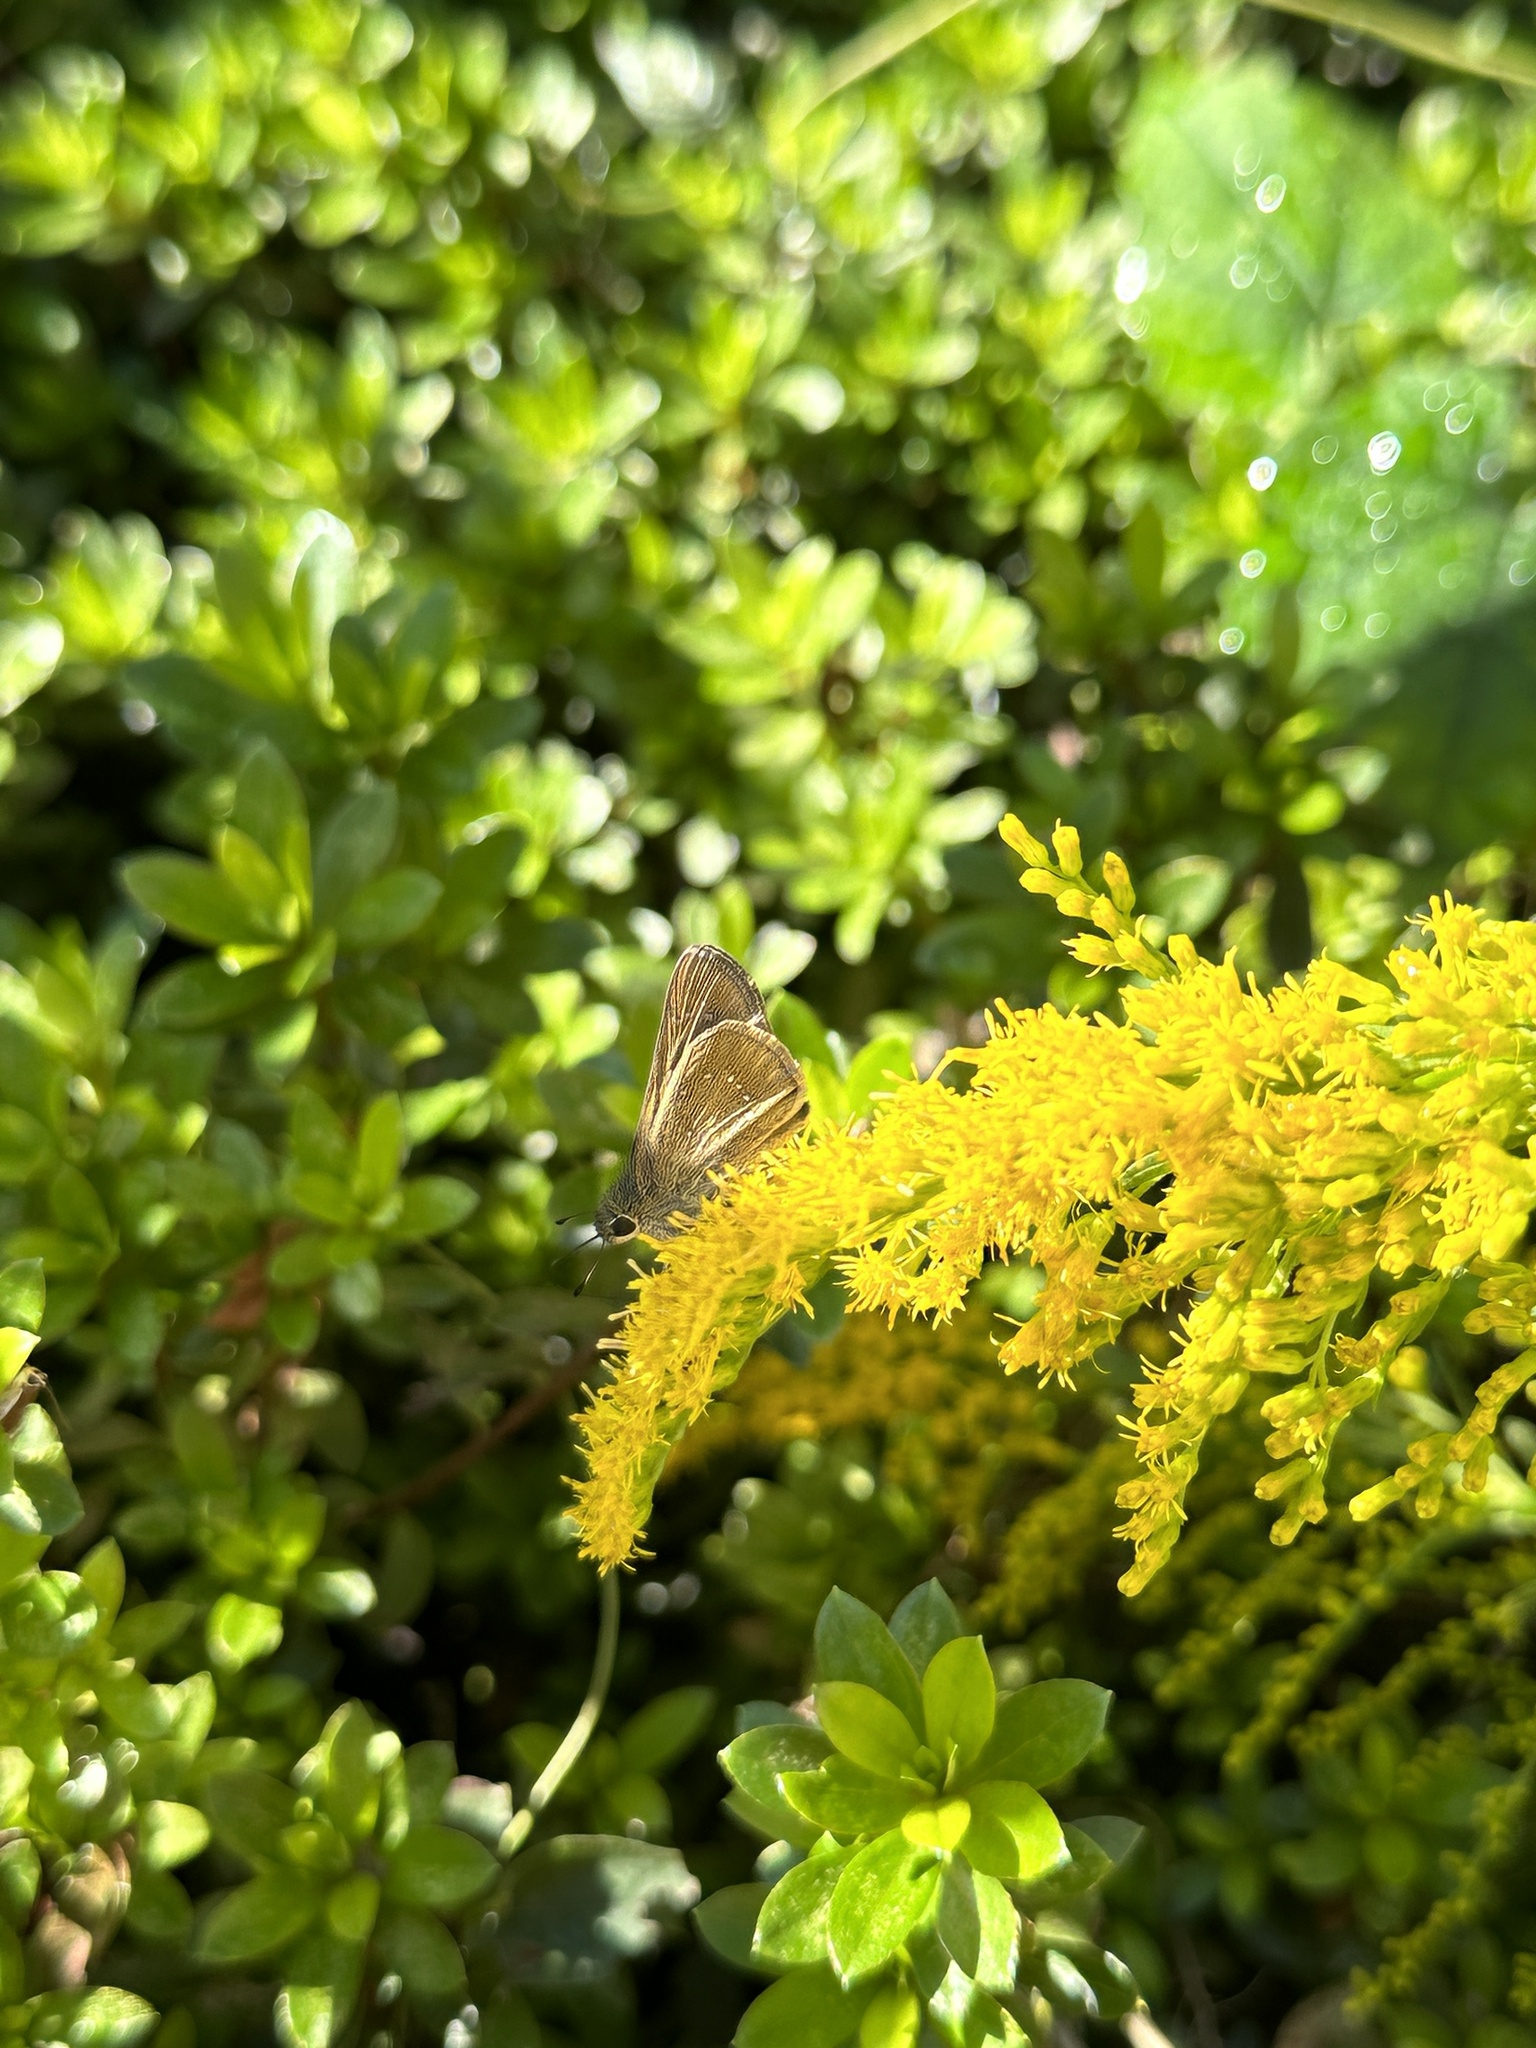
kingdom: Animalia
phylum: Arthropoda
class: Insecta
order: Lepidoptera
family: Hesperiidae
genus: Pelopidas
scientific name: Pelopidas mathias
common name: Black-branded swift
